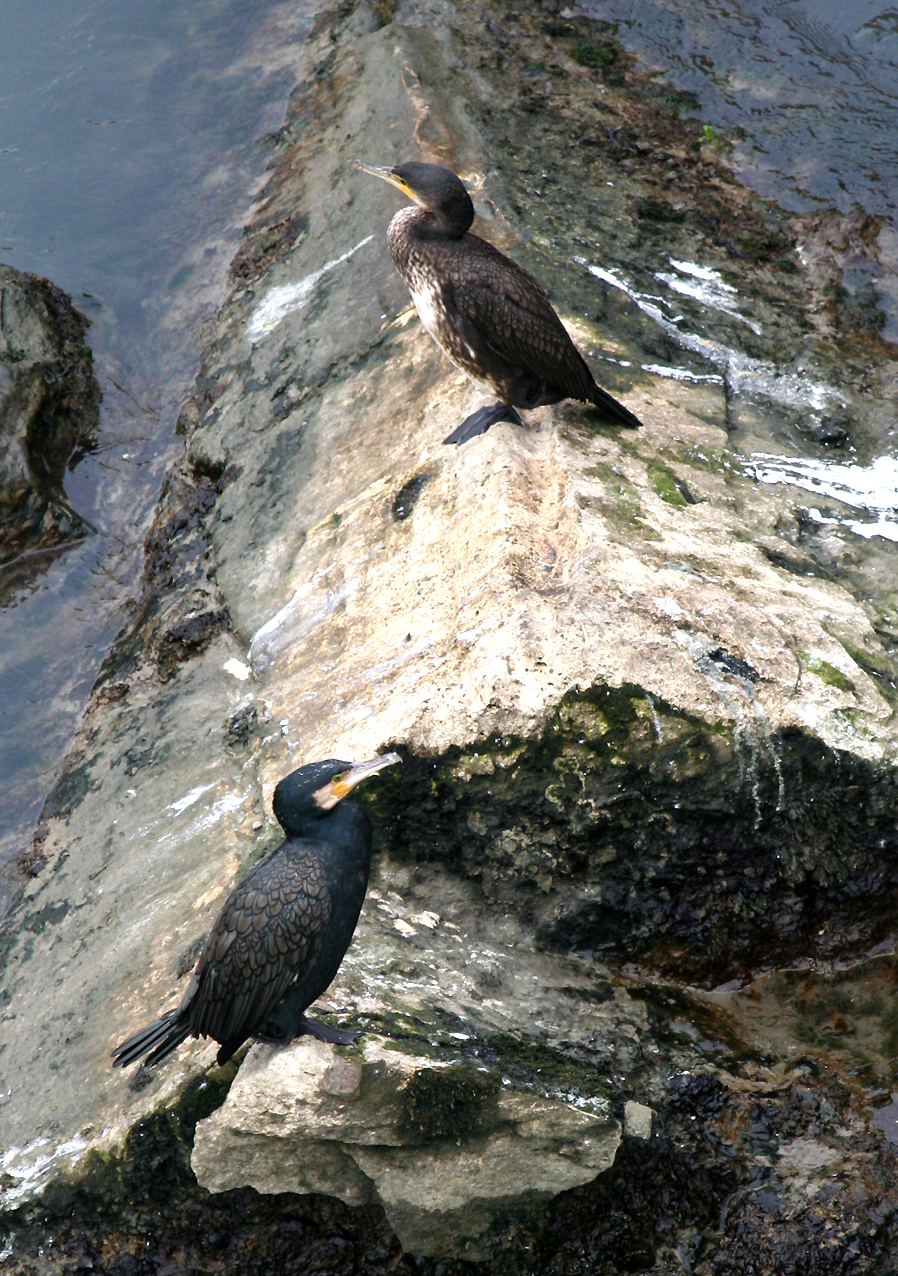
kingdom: Animalia
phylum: Chordata
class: Aves
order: Suliformes
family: Phalacrocoracidae
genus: Phalacrocorax
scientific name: Phalacrocorax carbo
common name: Great cormorant
